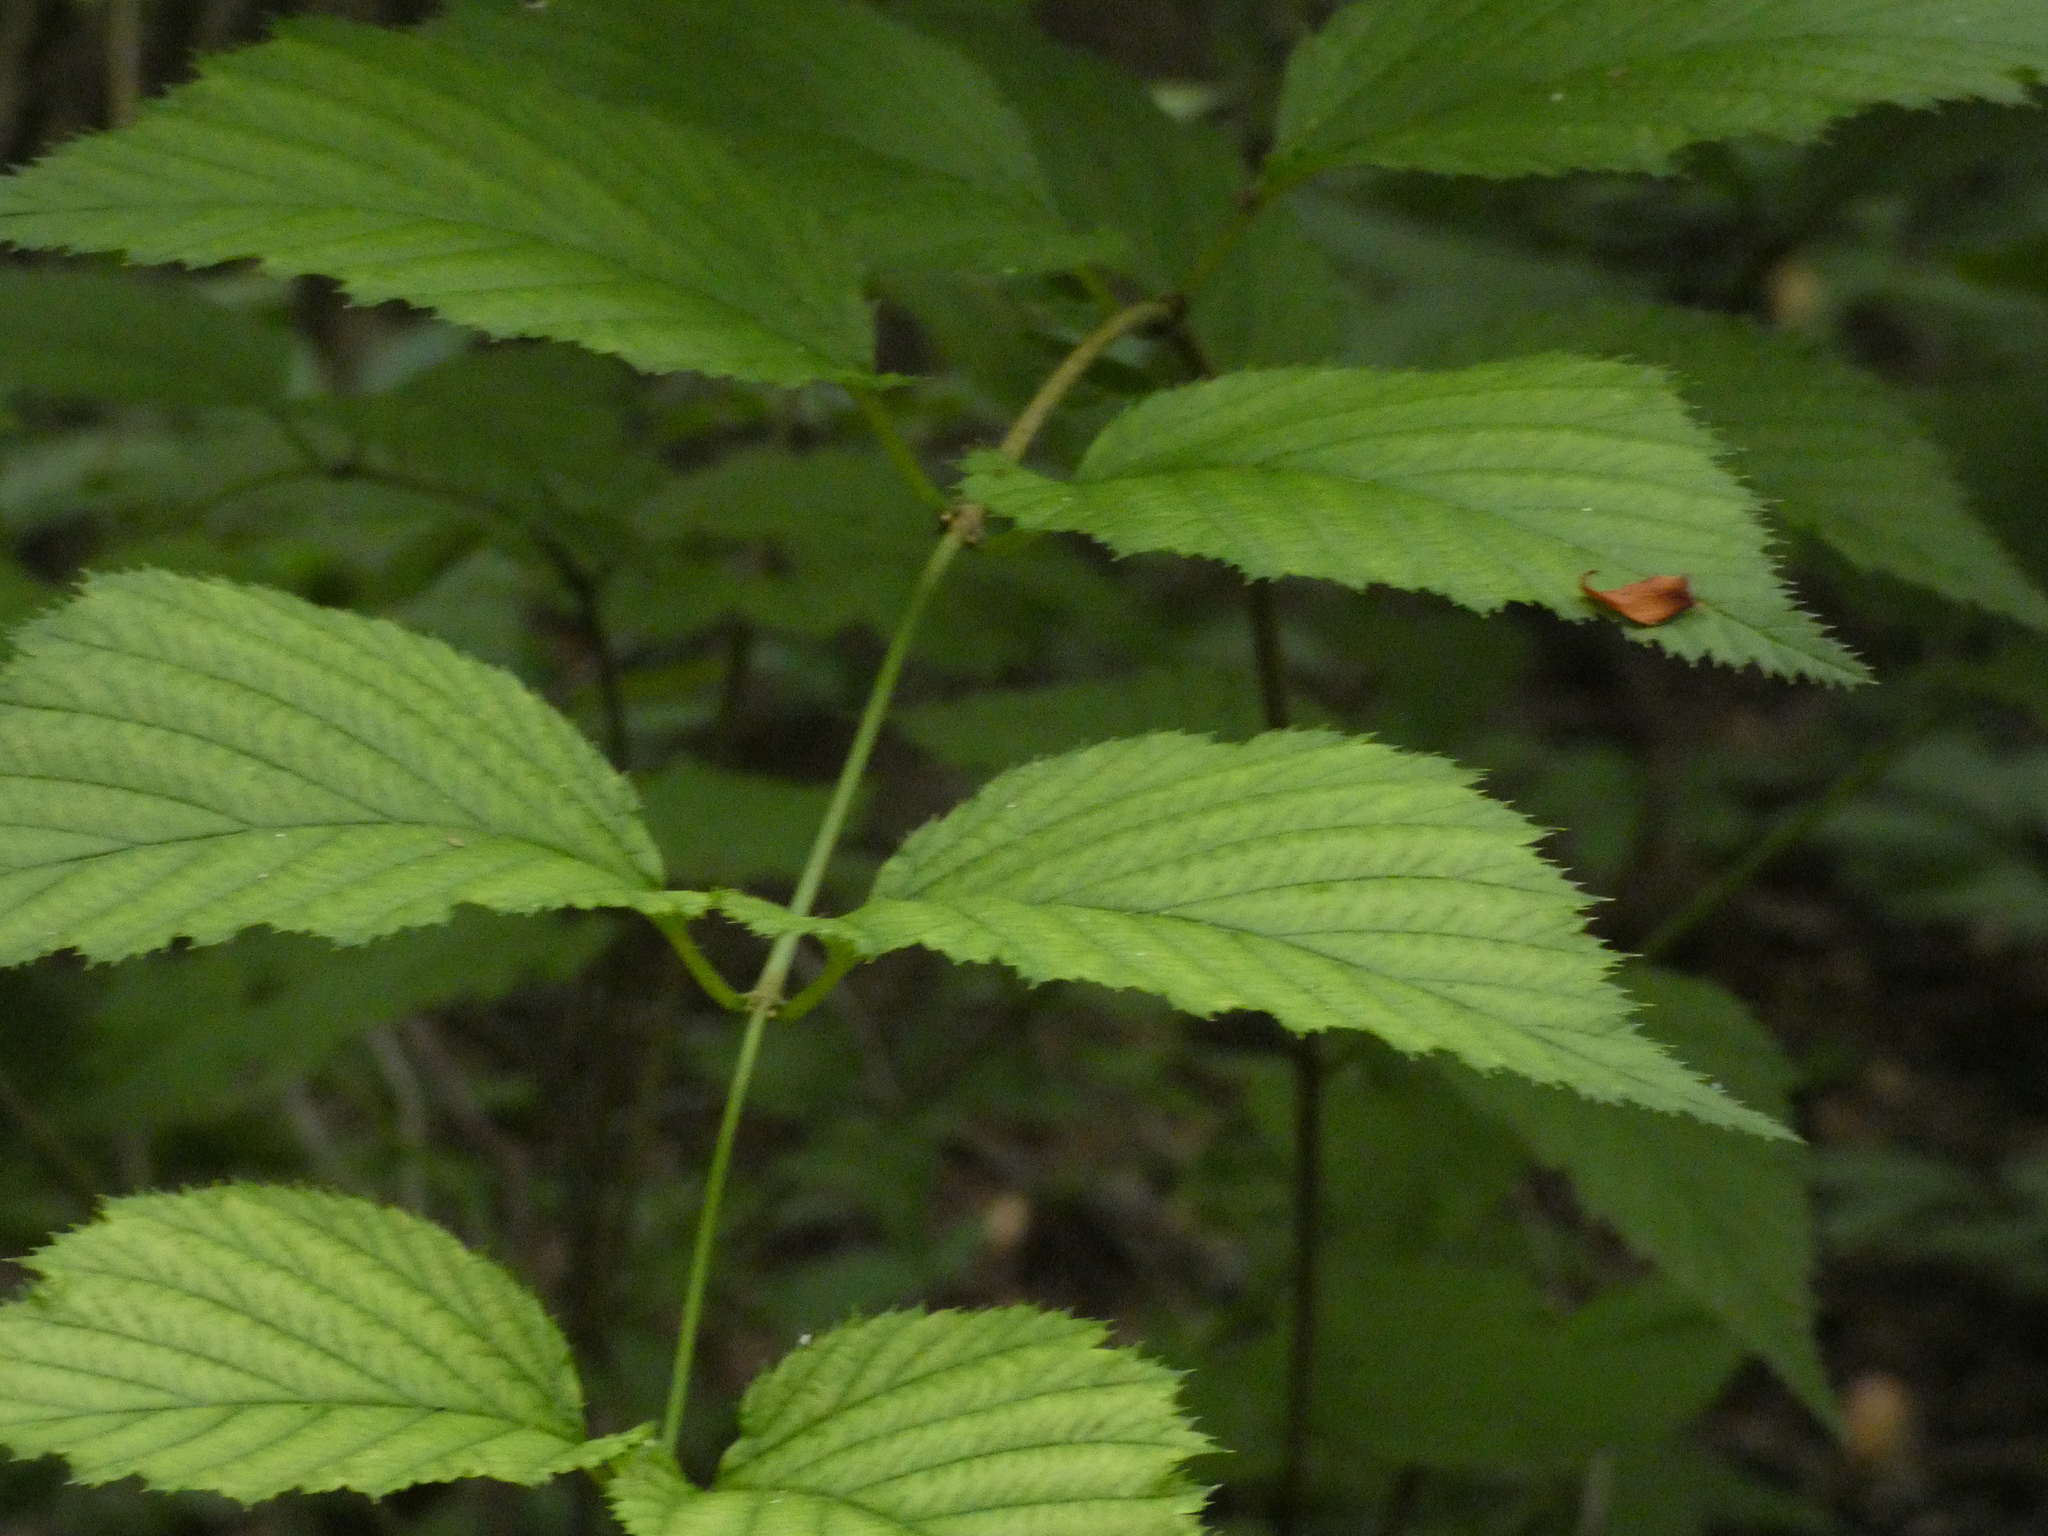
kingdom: Plantae
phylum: Tracheophyta
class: Magnoliopsida
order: Rosales
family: Rosaceae
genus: Rhodotypos
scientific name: Rhodotypos scandens
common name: Jetbead
